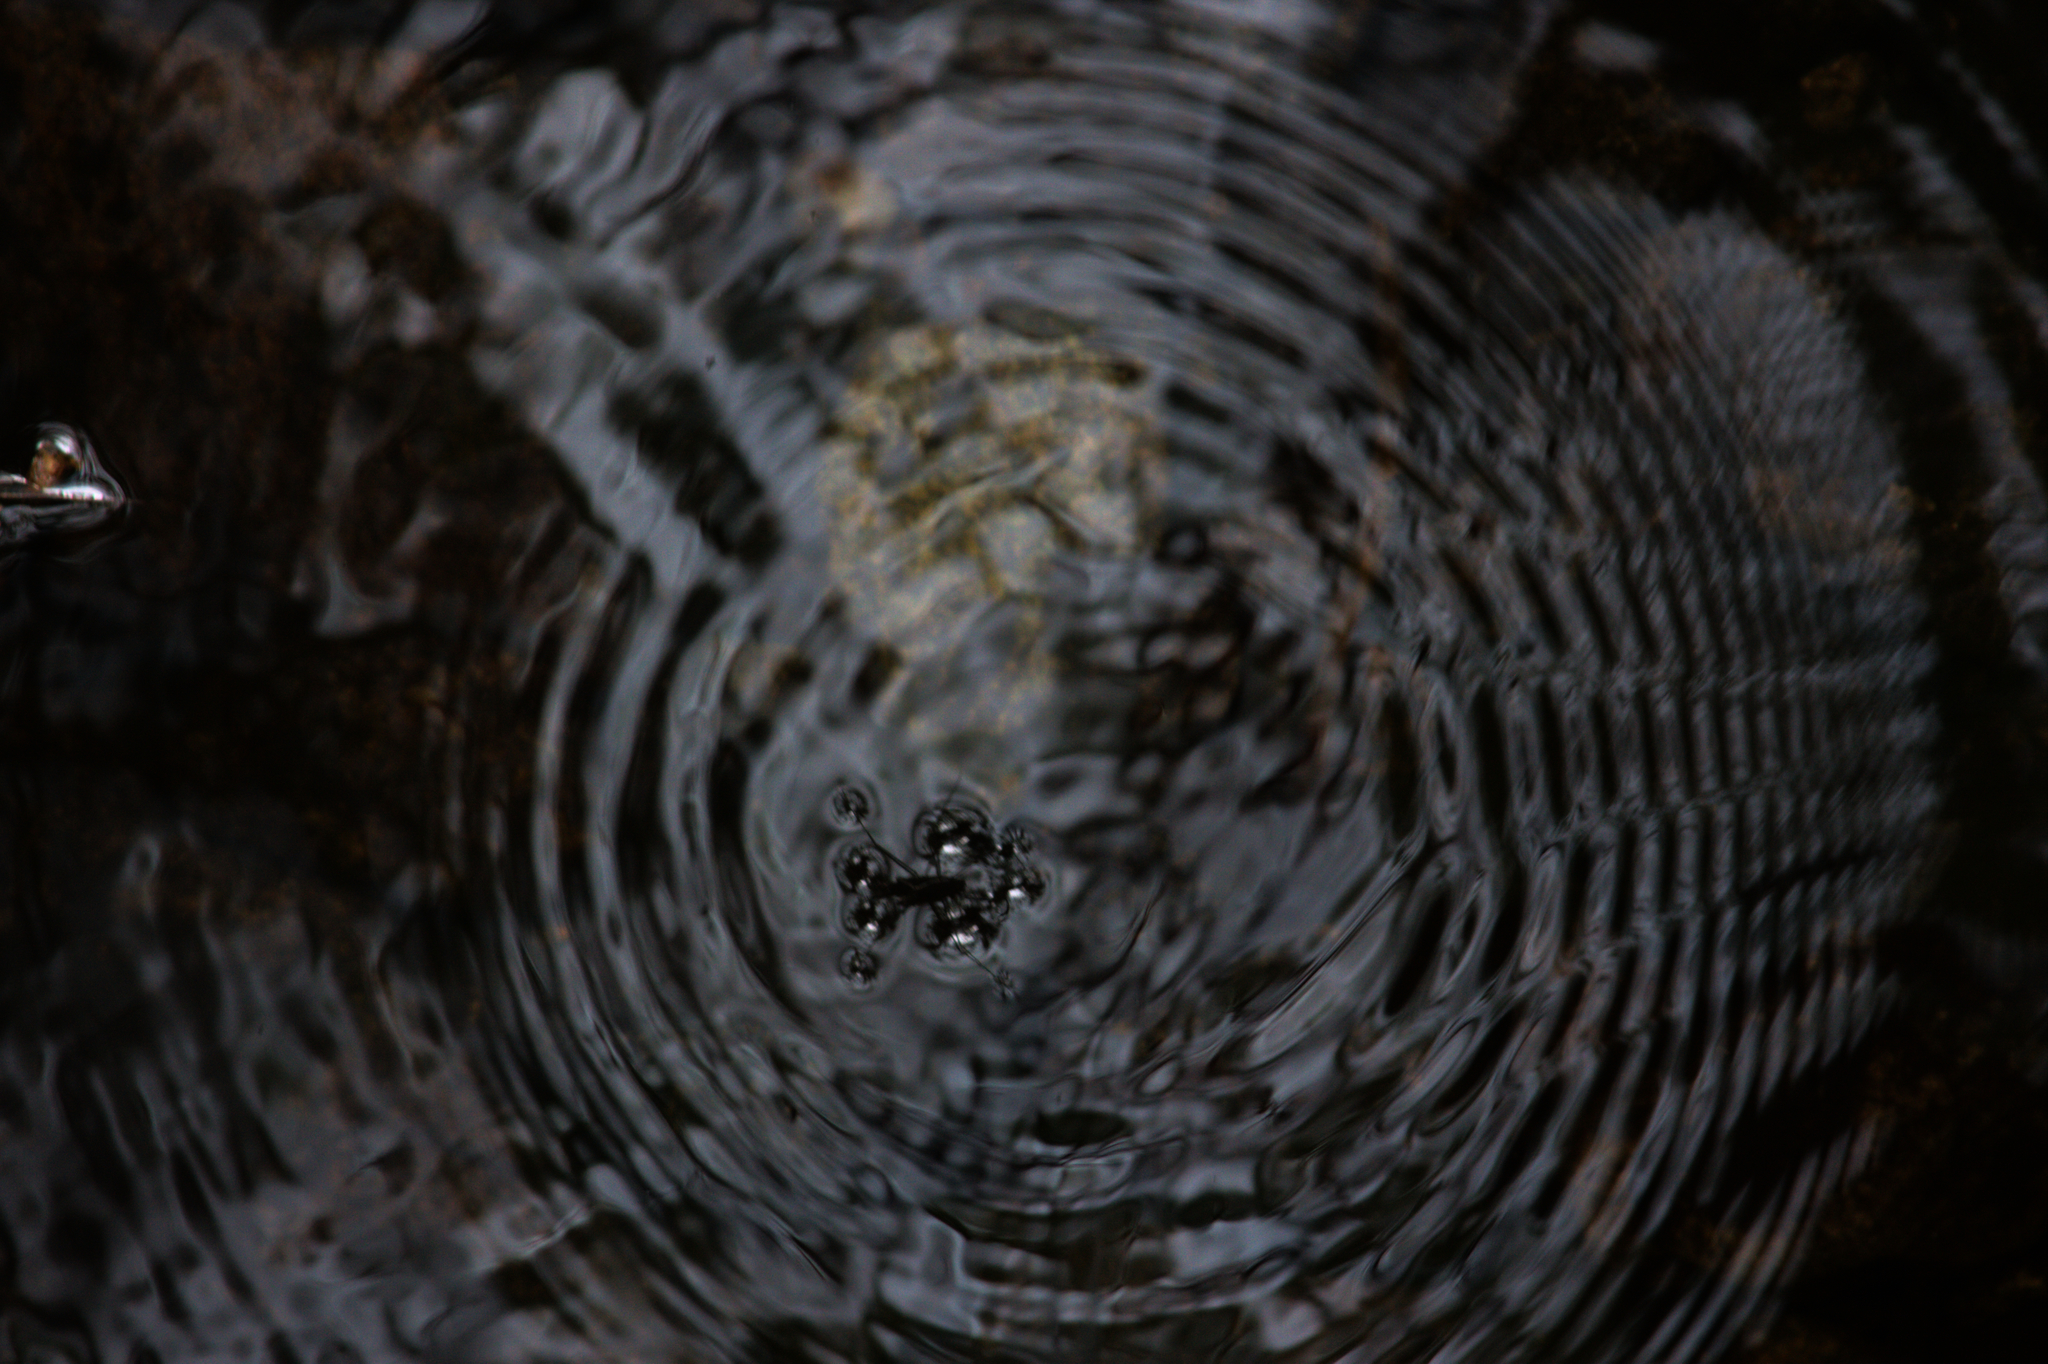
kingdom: Animalia
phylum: Arthropoda
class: Insecta
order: Hemiptera
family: Gerridae
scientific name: Gerridae
